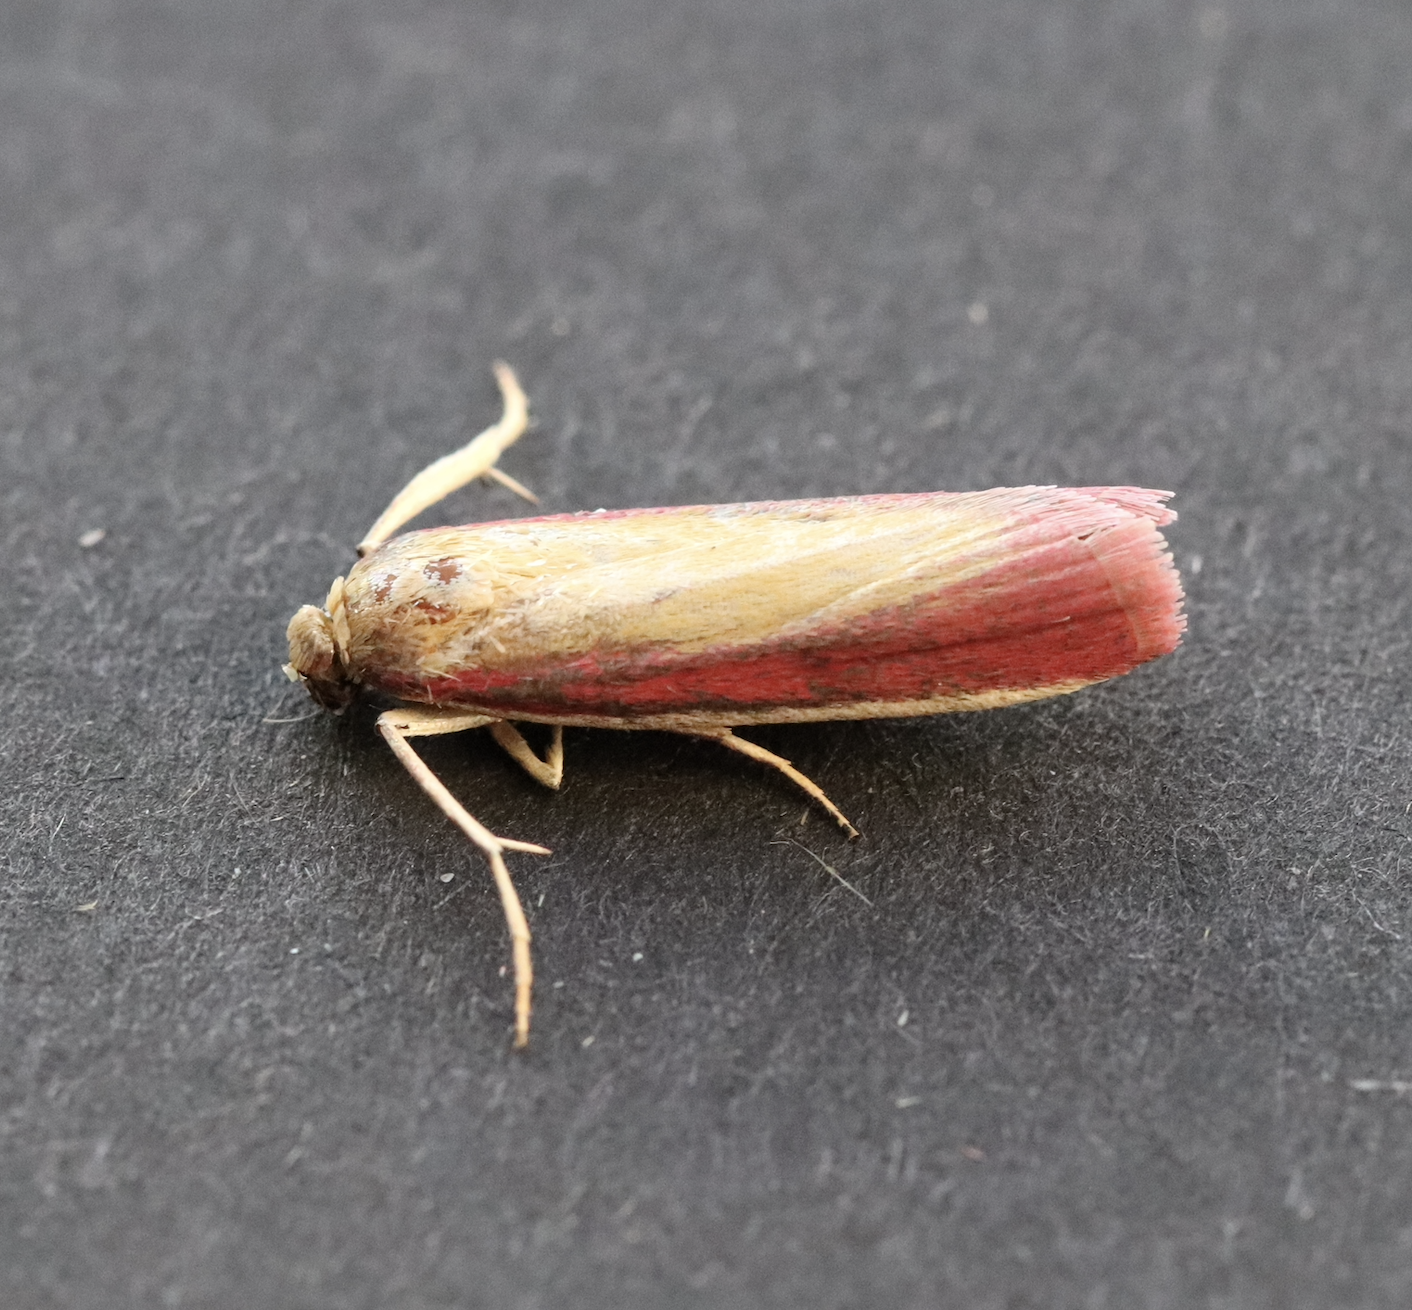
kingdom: Animalia
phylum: Arthropoda
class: Insecta
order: Lepidoptera
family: Pyralidae
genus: Oncocera
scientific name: Oncocera semirubella
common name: Rosy-striped knot-horn
